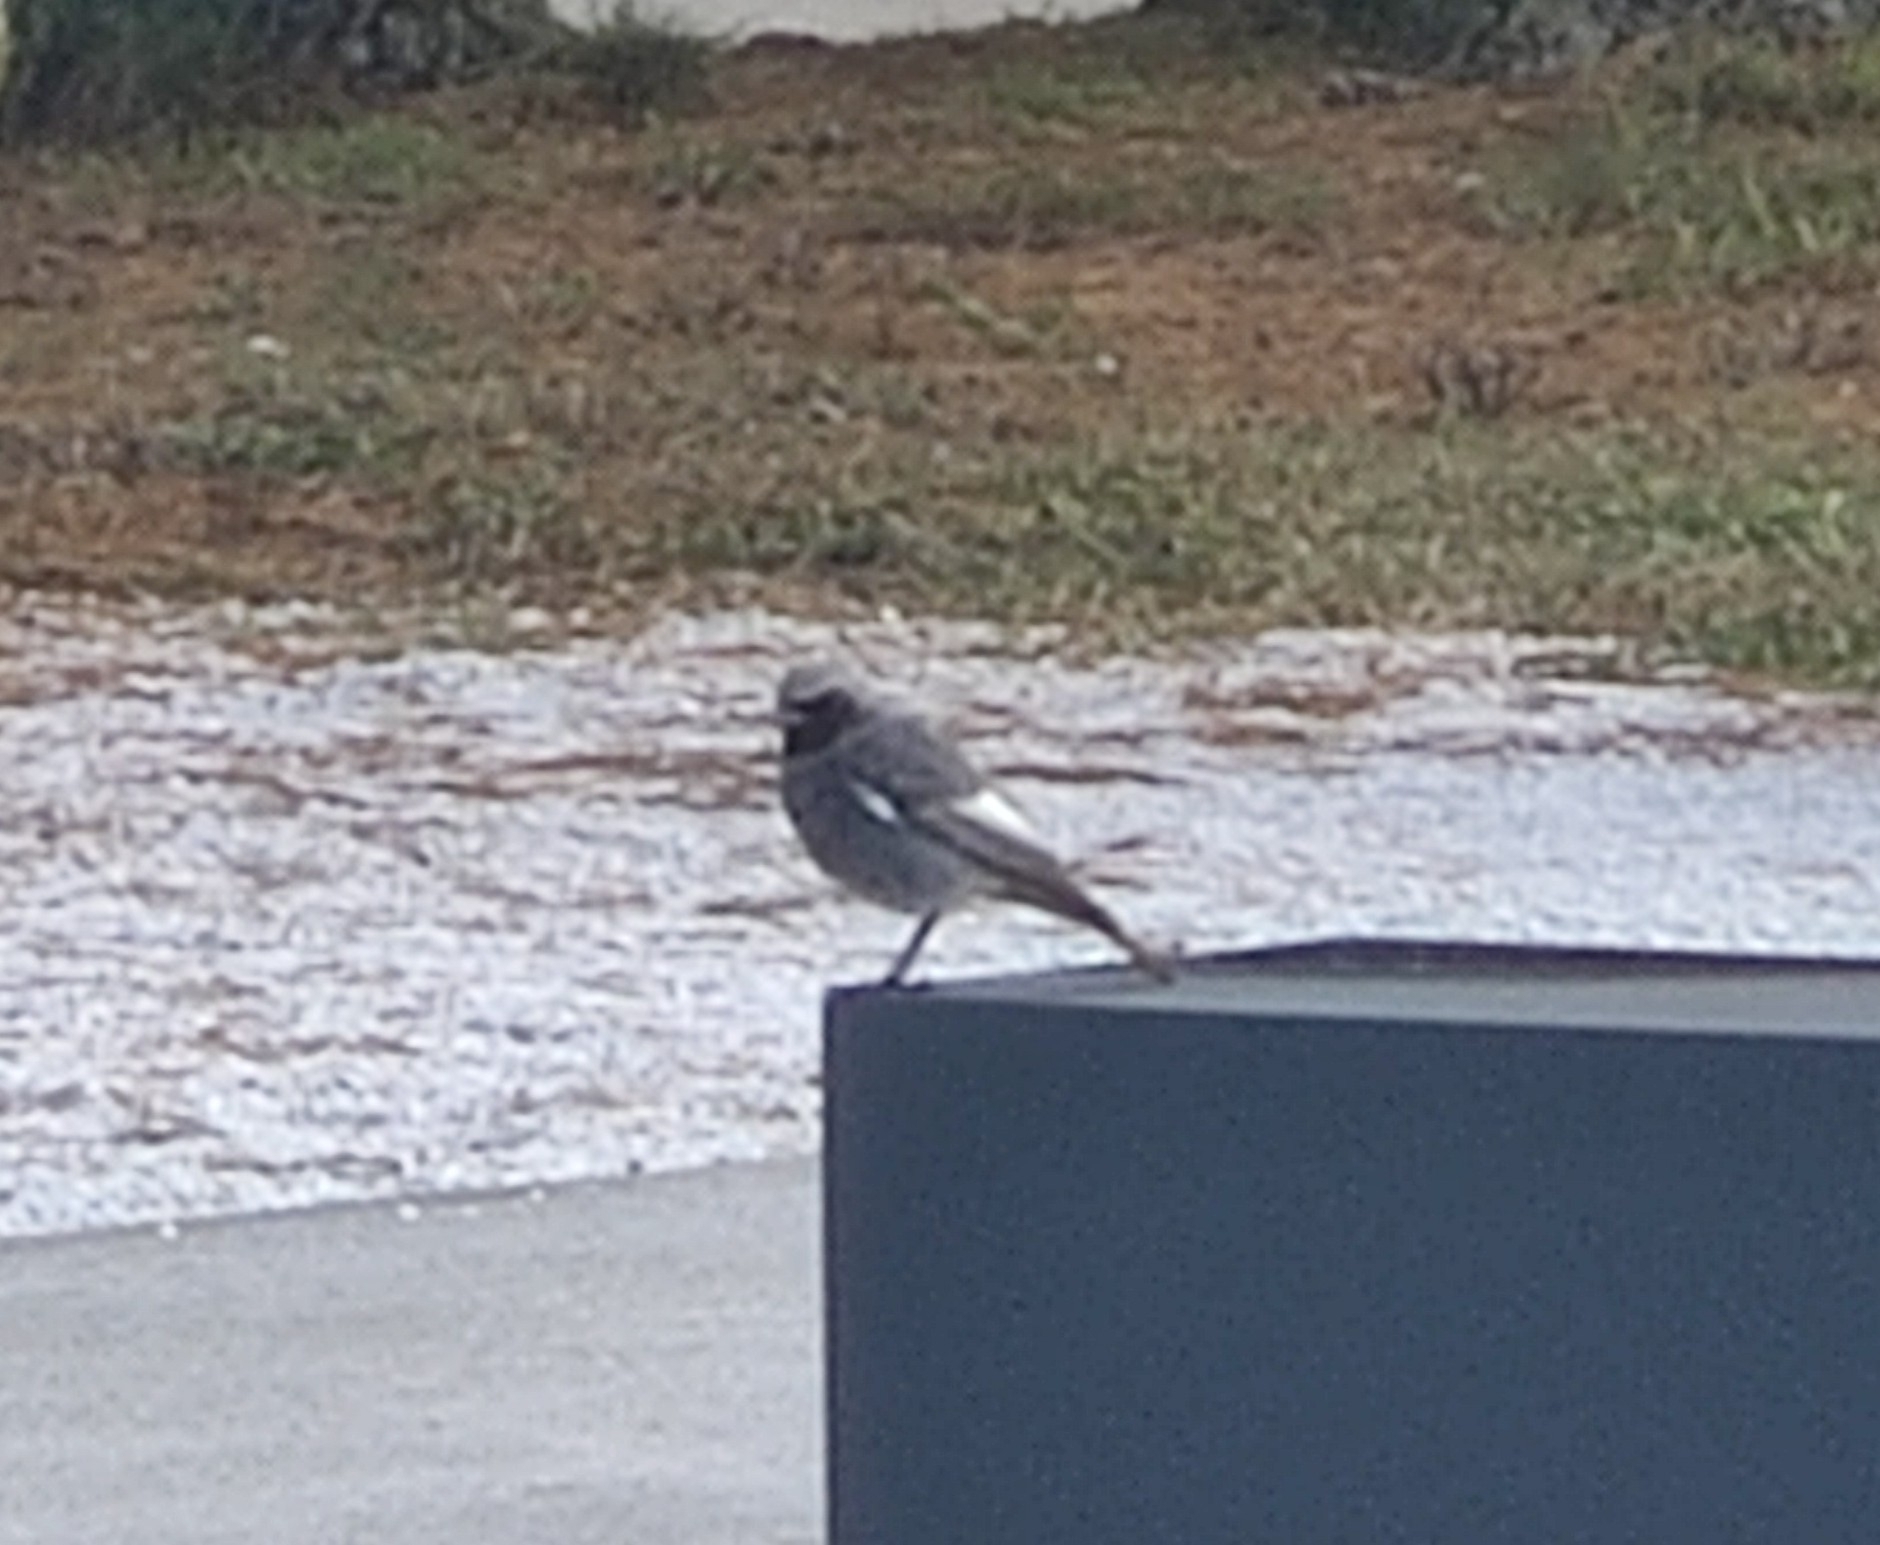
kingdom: Animalia
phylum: Chordata
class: Aves
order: Passeriformes
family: Muscicapidae
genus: Phoenicurus
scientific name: Phoenicurus ochruros
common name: Black redstart
